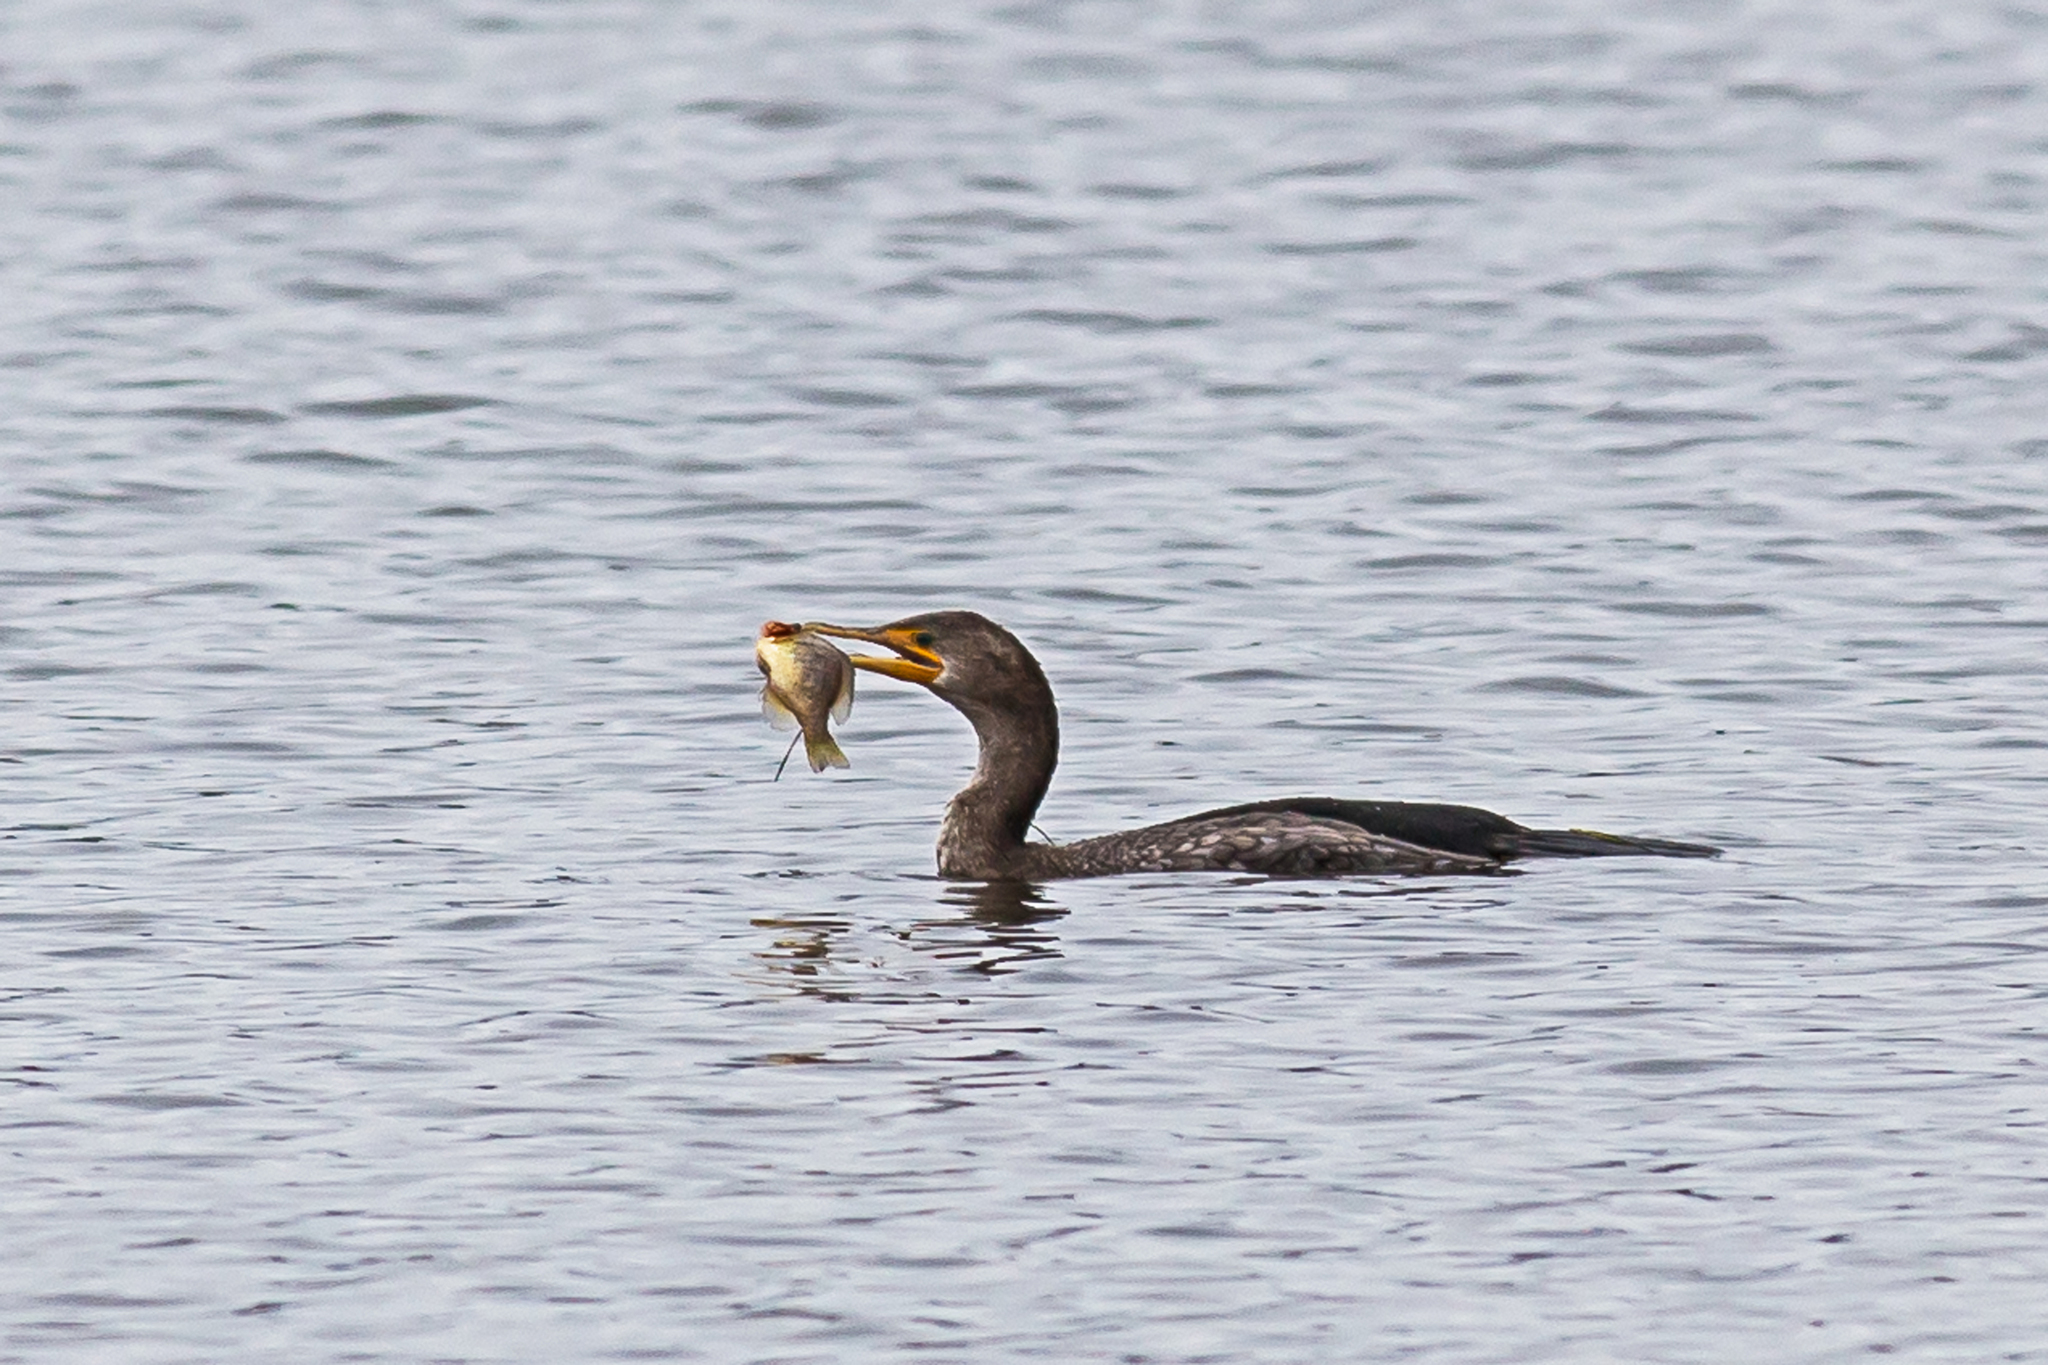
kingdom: Animalia
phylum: Chordata
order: Perciformes
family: Centrarchidae
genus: Lepomis
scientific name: Lepomis
